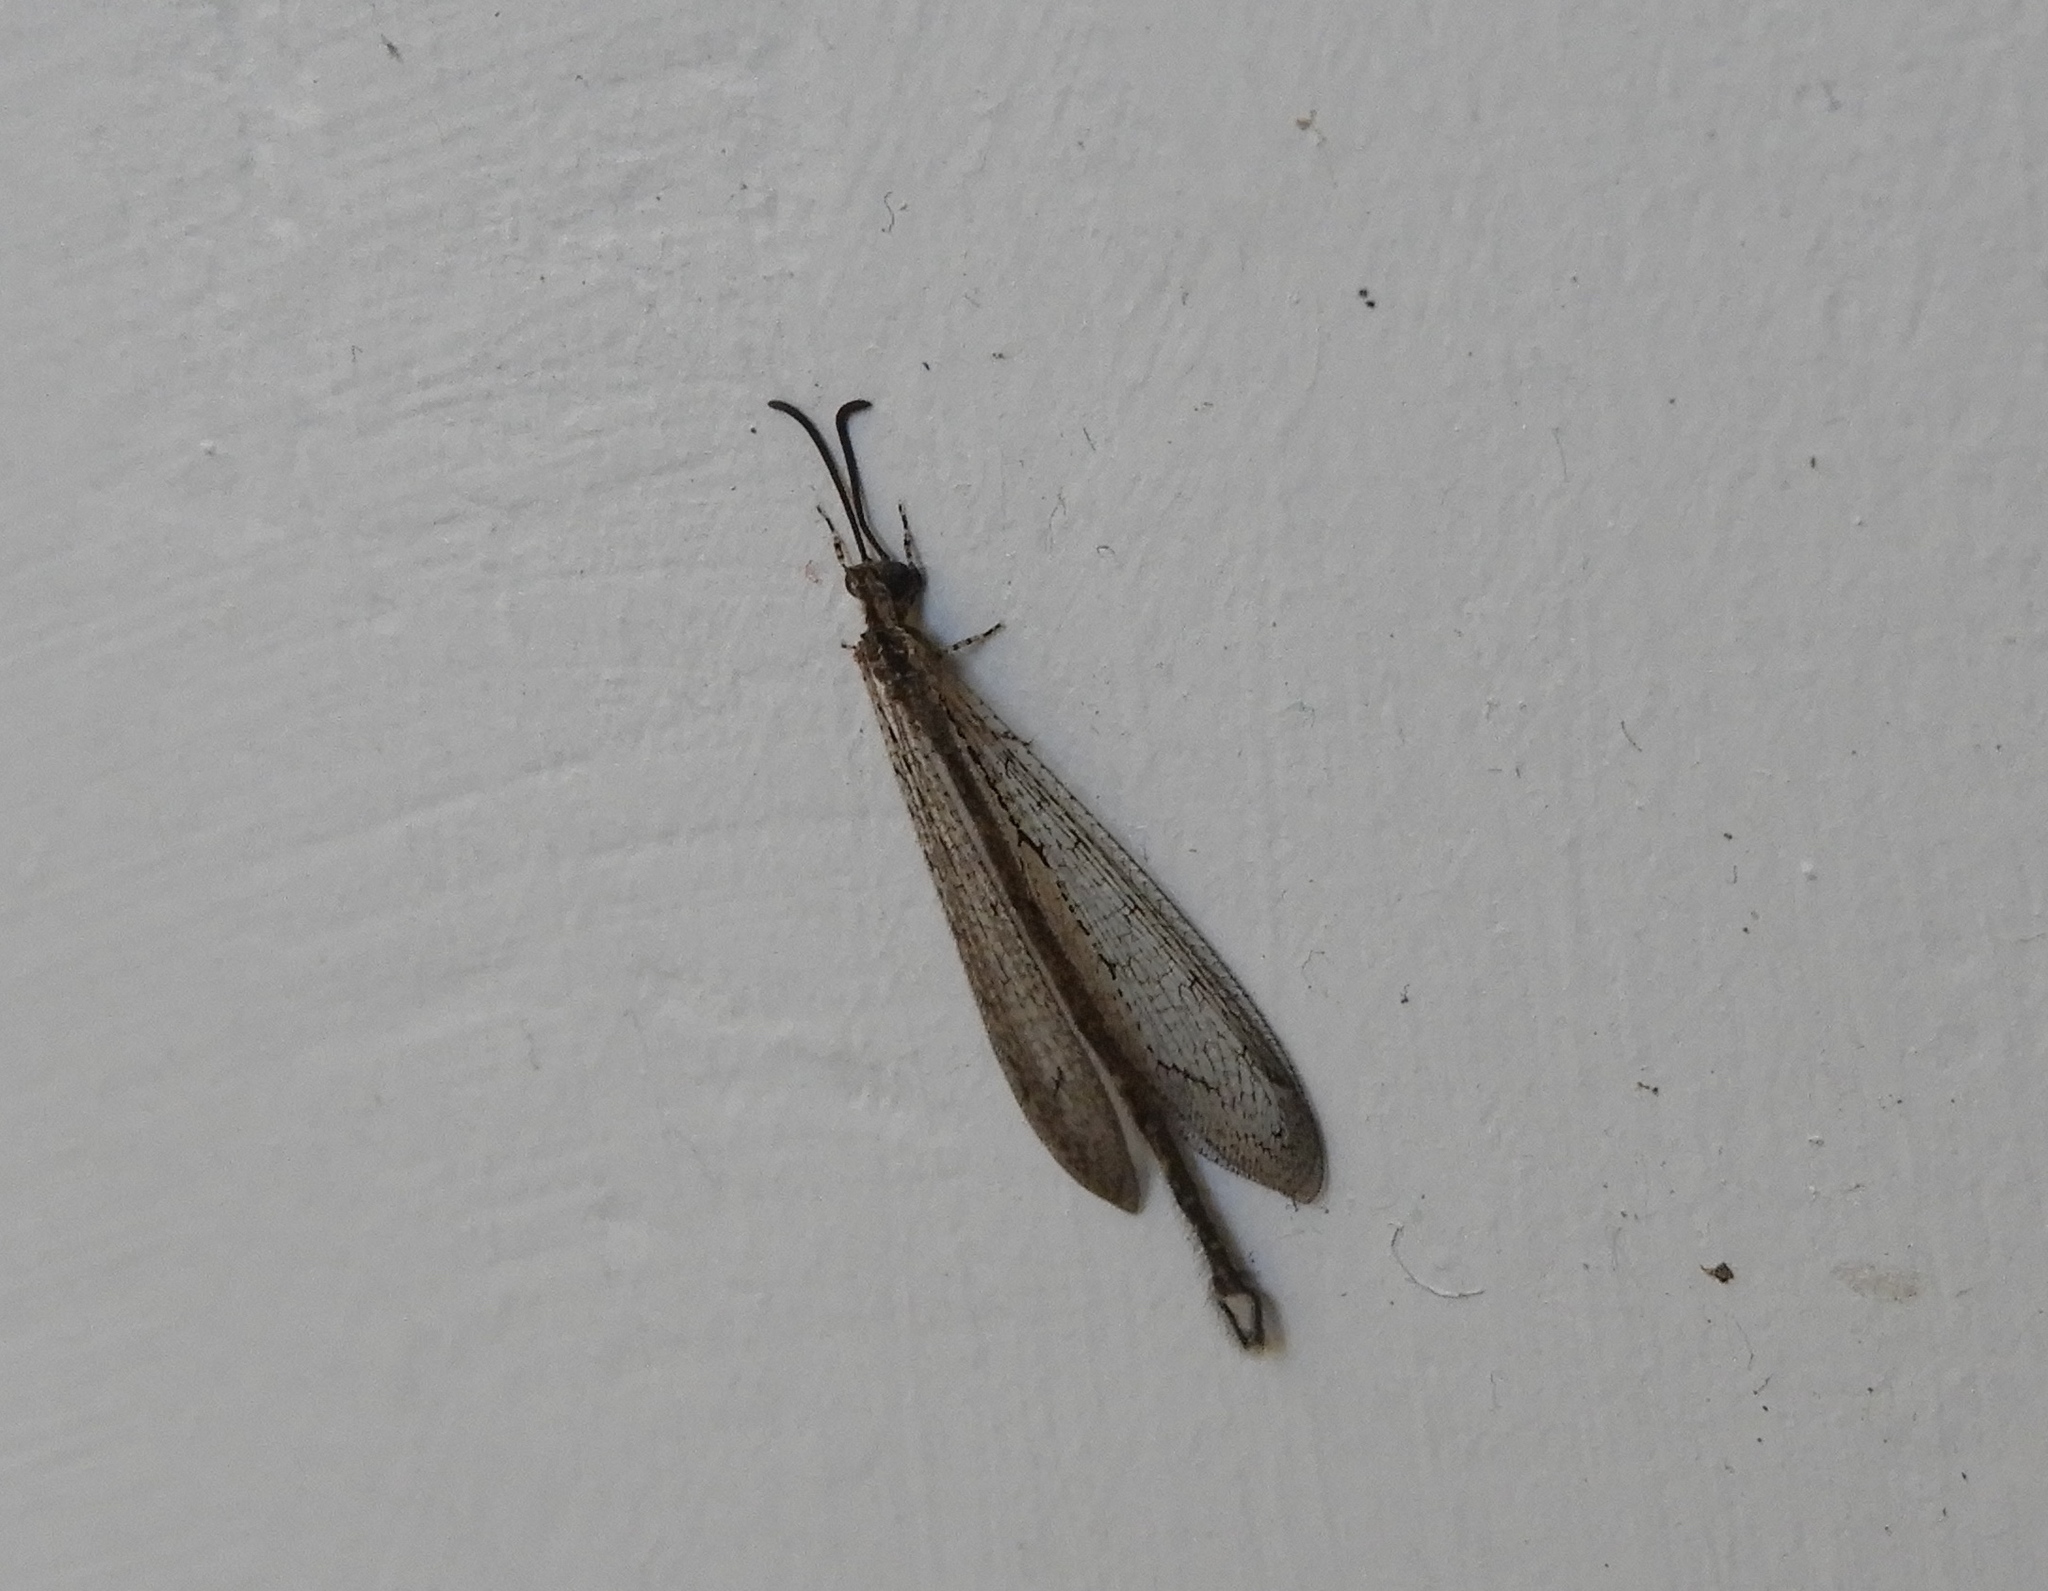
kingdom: Animalia
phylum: Arthropoda
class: Insecta
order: Neuroptera
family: Myrmeleontidae
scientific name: Myrmeleontidae
